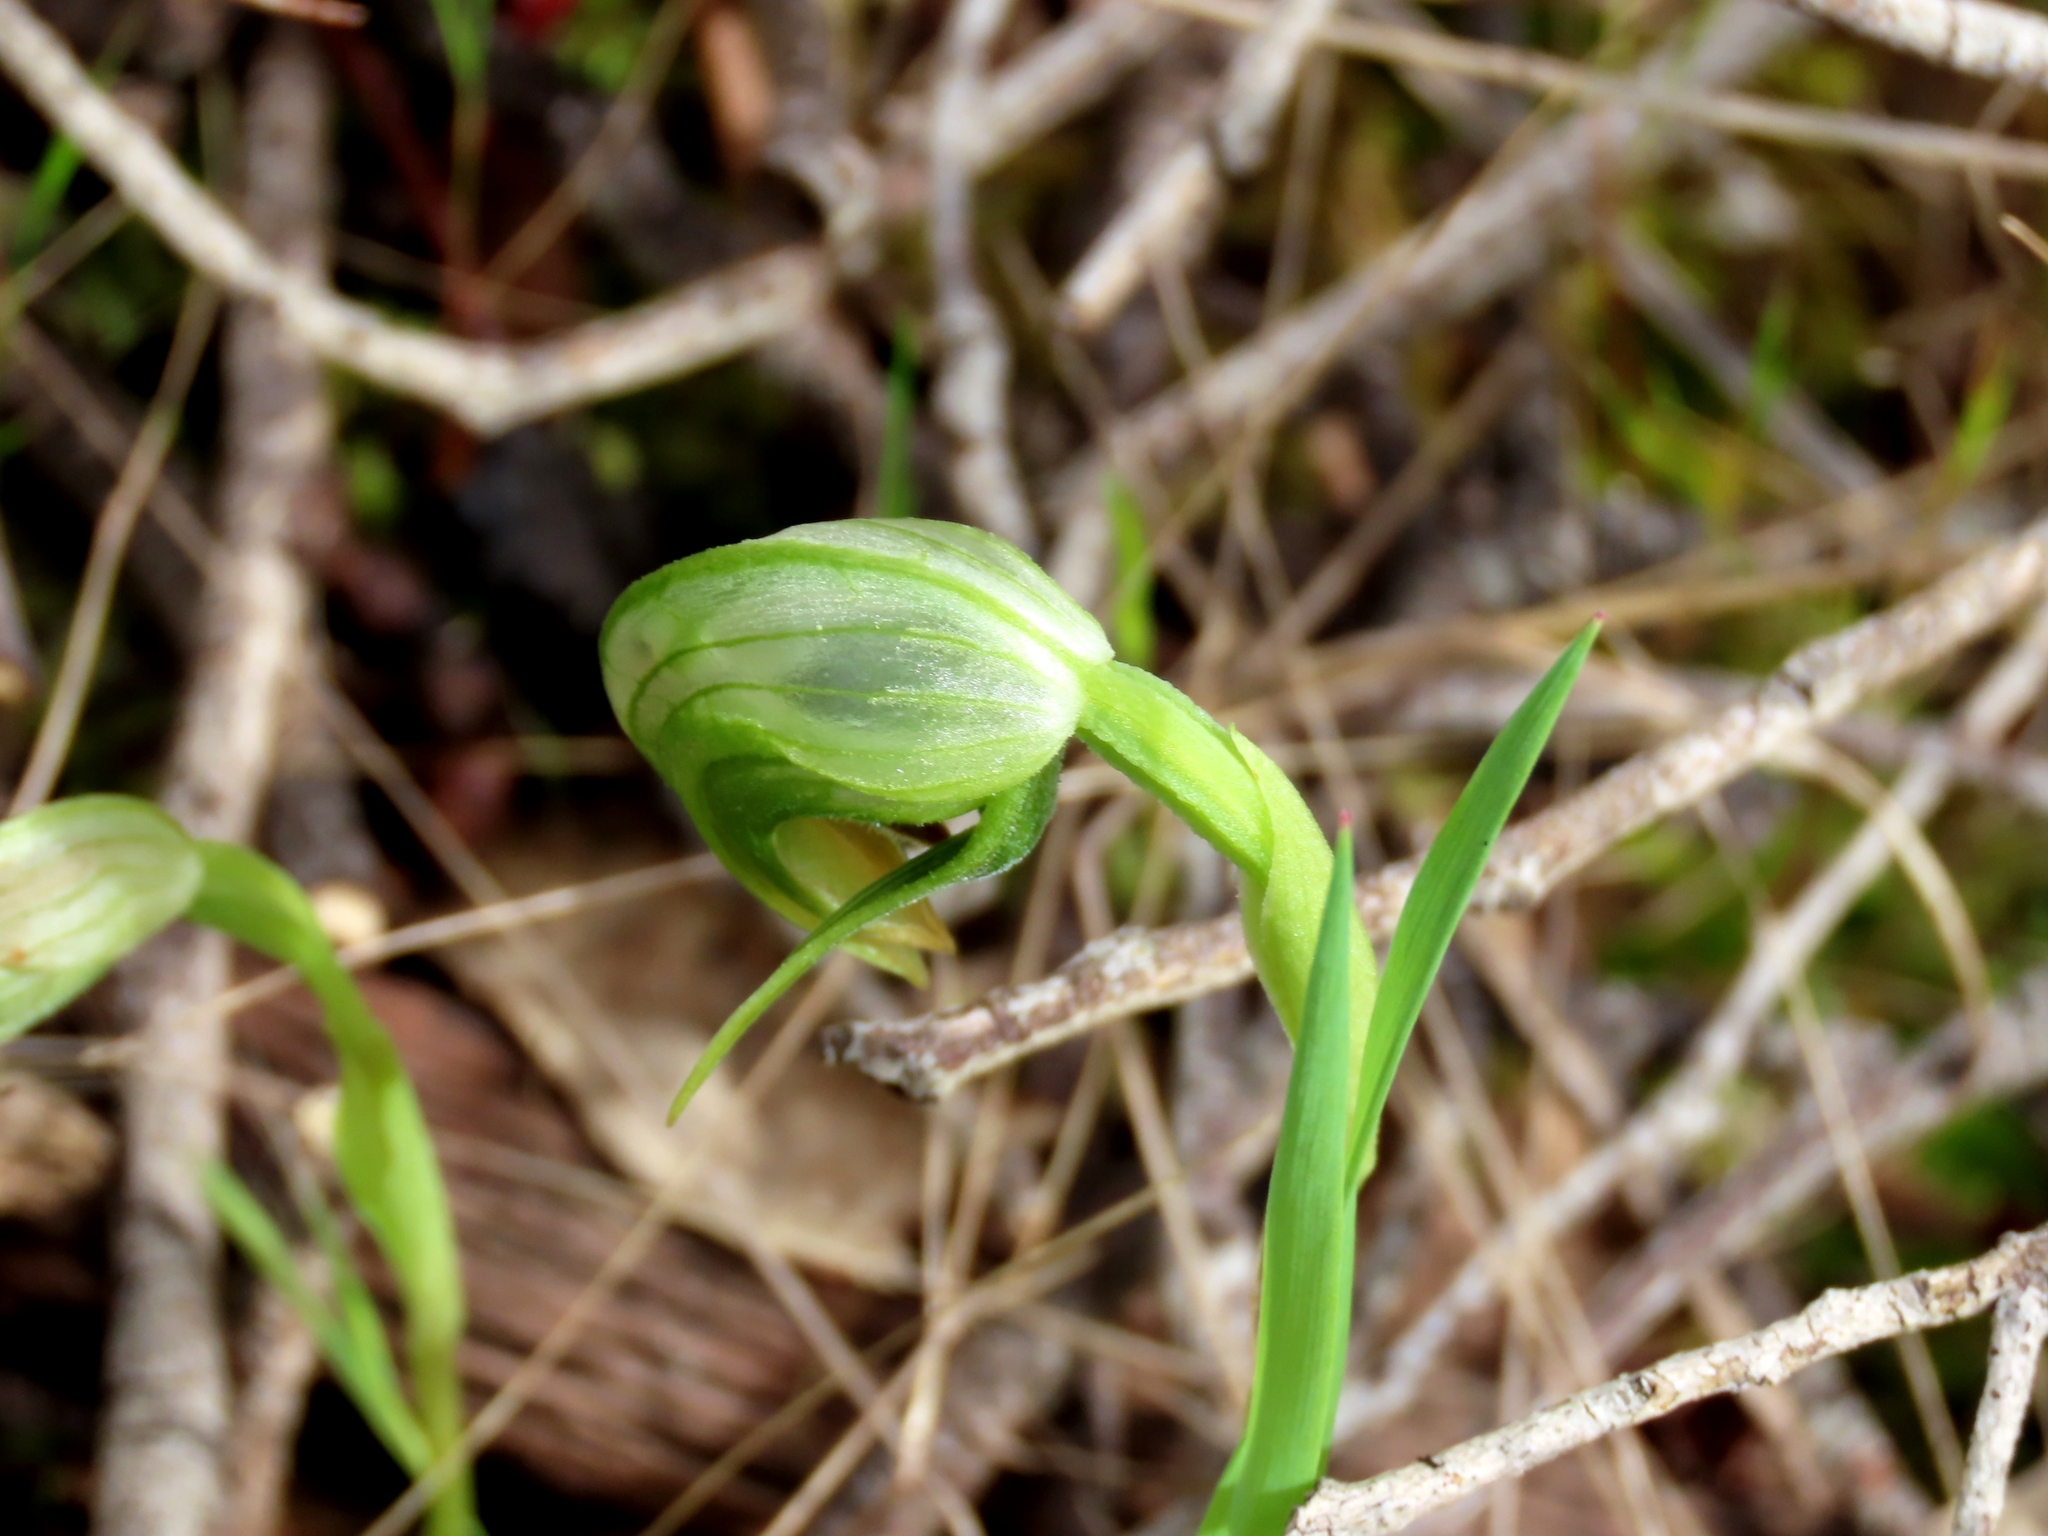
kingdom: Plantae
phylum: Tracheophyta
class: Liliopsida
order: Asparagales
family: Orchidaceae
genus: Pterostylis
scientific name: Pterostylis nutans
